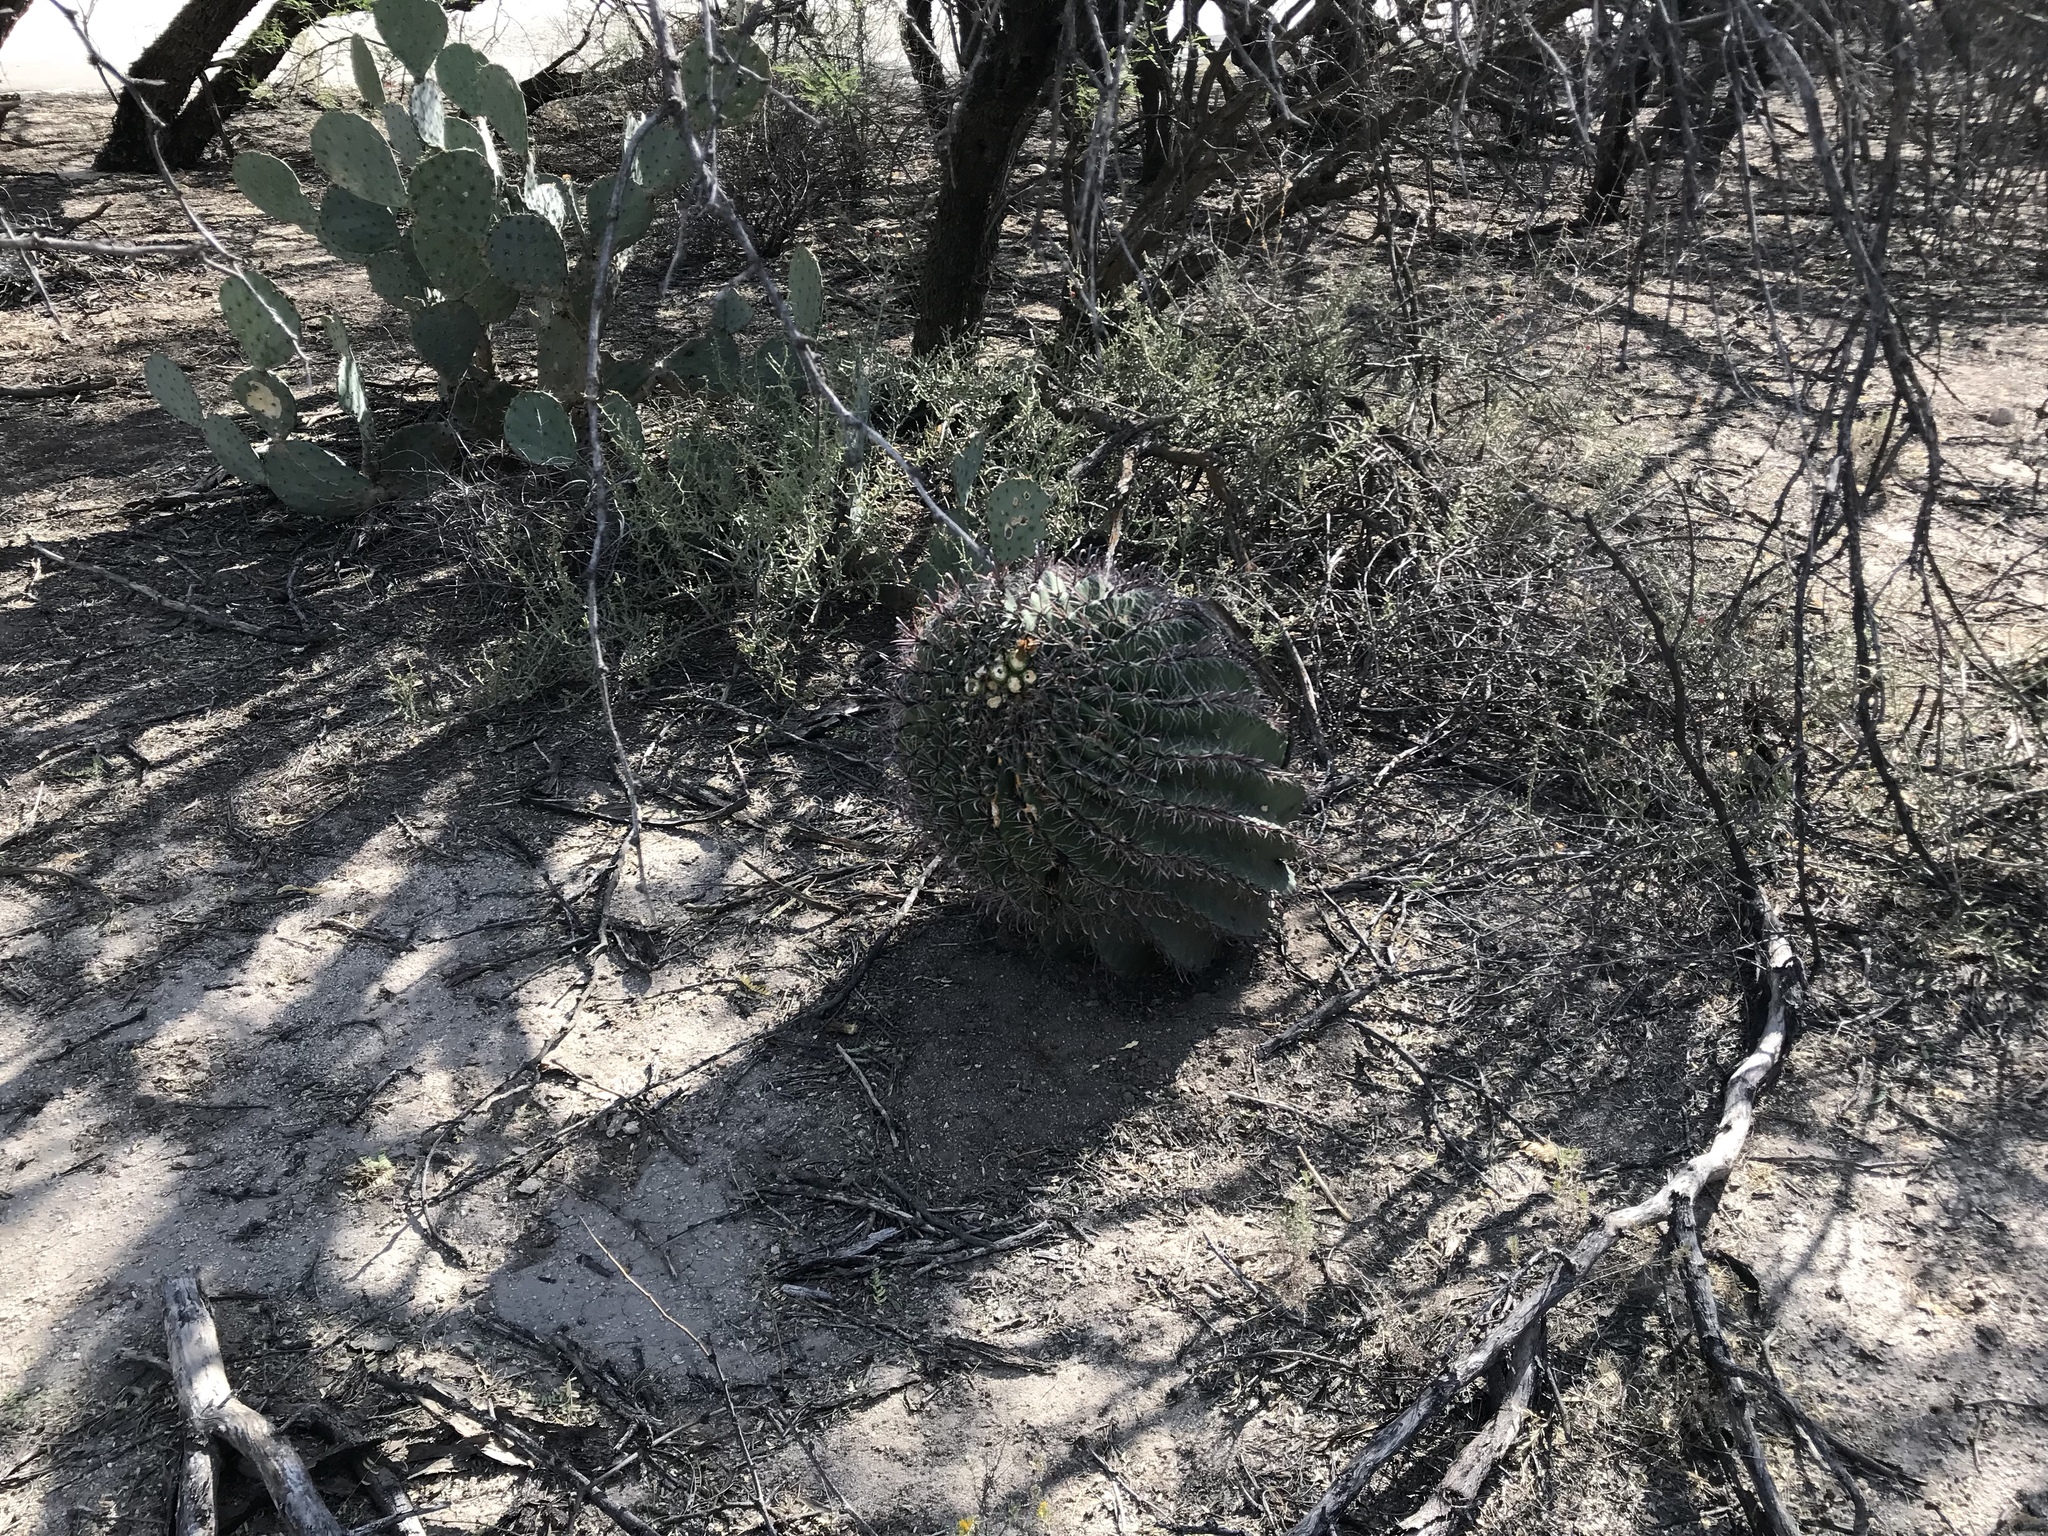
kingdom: Plantae
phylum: Tracheophyta
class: Magnoliopsida
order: Caryophyllales
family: Cactaceae
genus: Ferocactus
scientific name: Ferocactus wislizeni
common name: Candy barrel cactus
